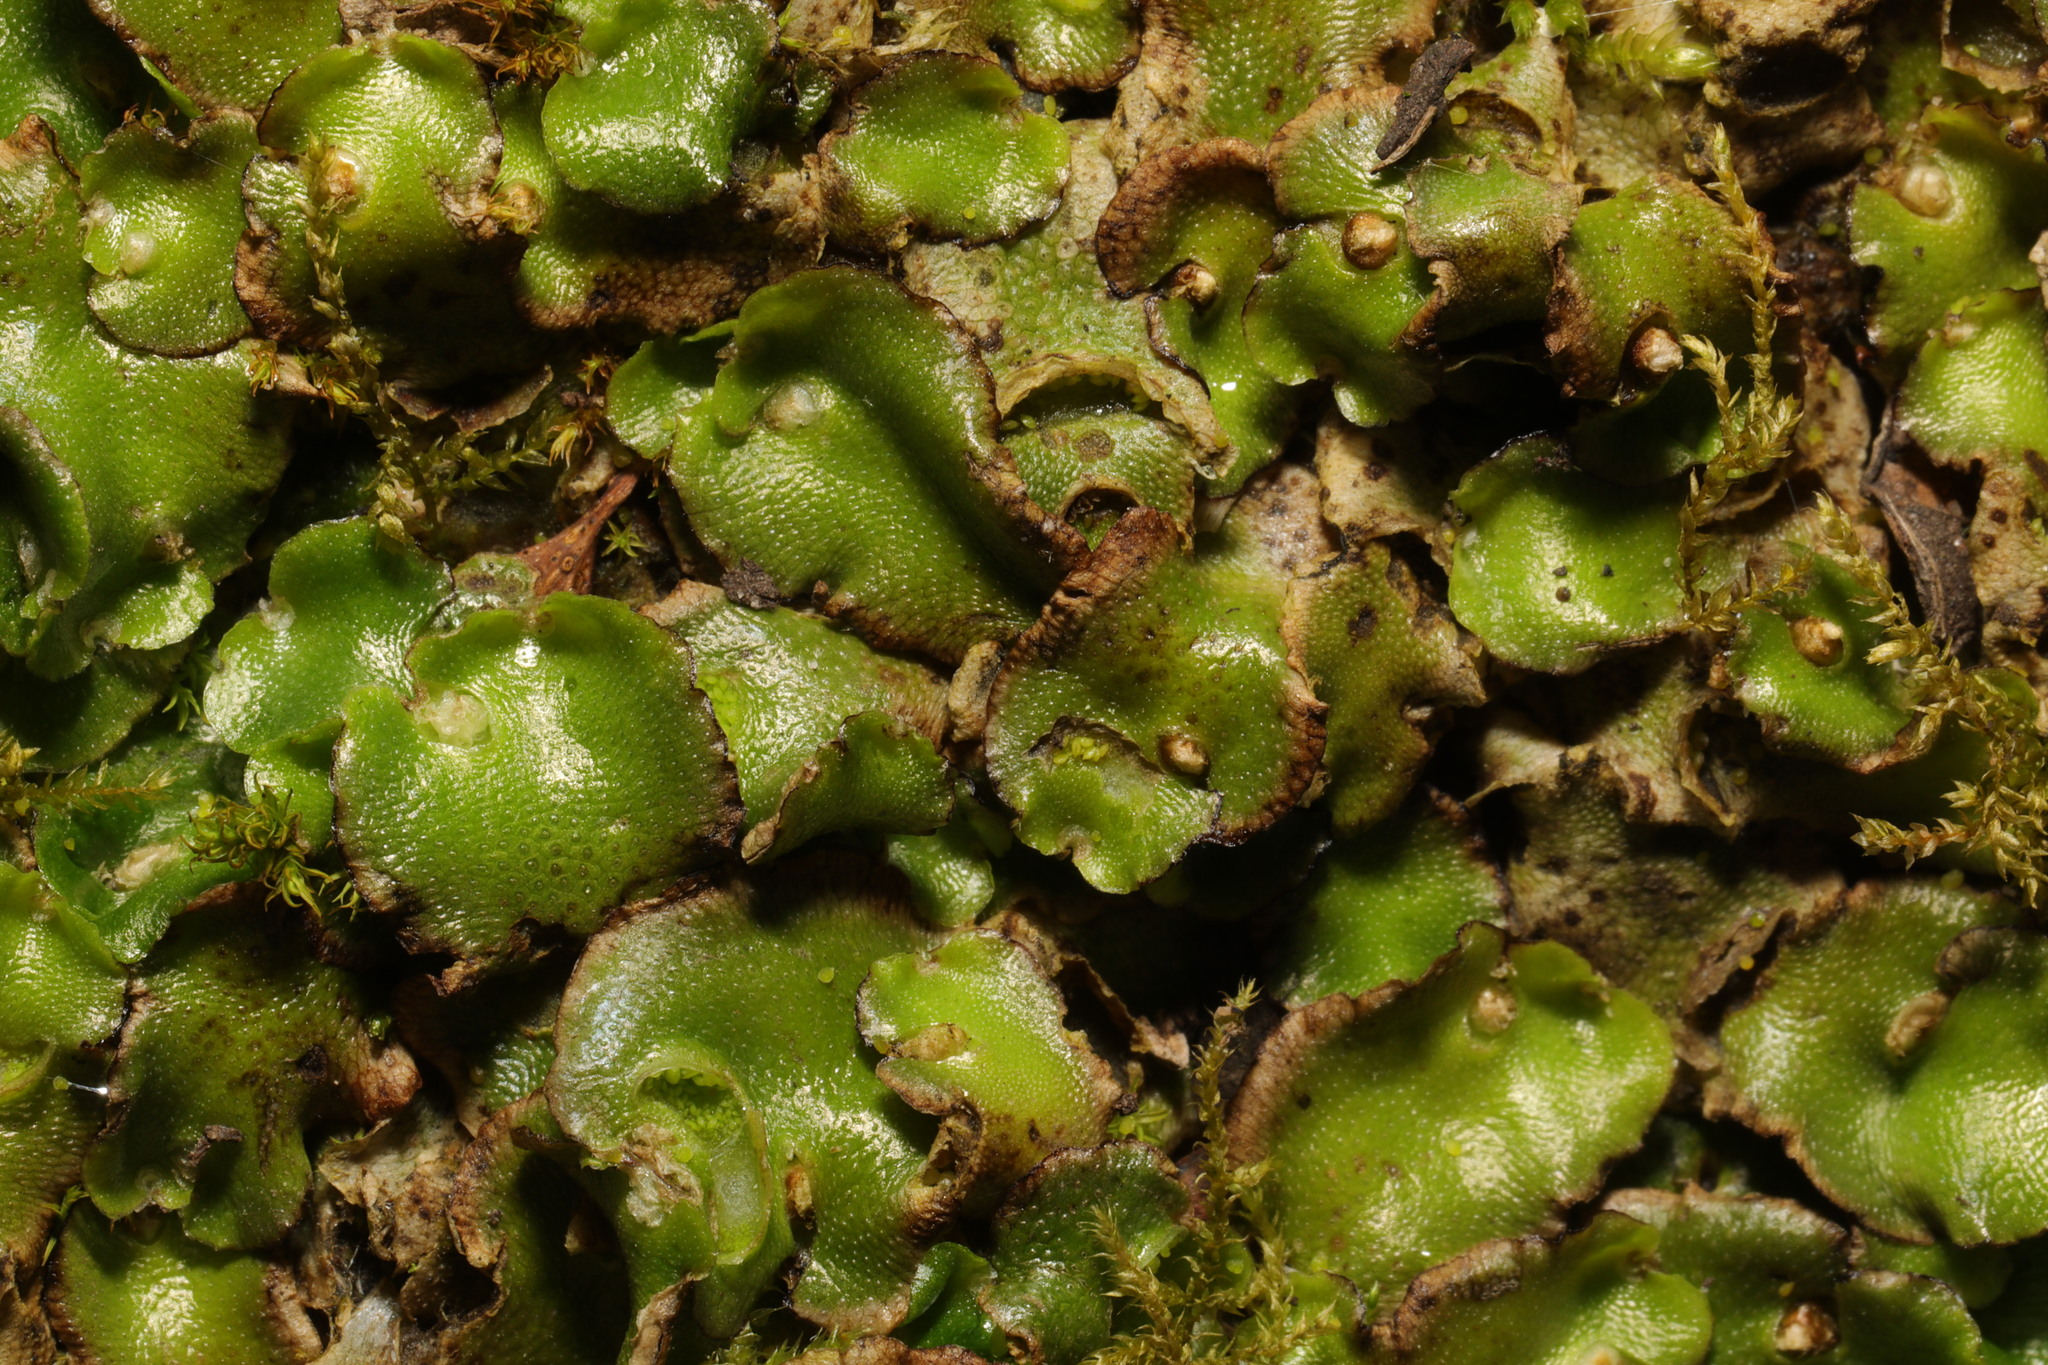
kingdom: Plantae
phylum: Marchantiophyta
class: Marchantiopsida
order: Lunulariales
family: Lunulariaceae
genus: Lunularia
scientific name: Lunularia cruciata
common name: Crescent-cup liverwort
